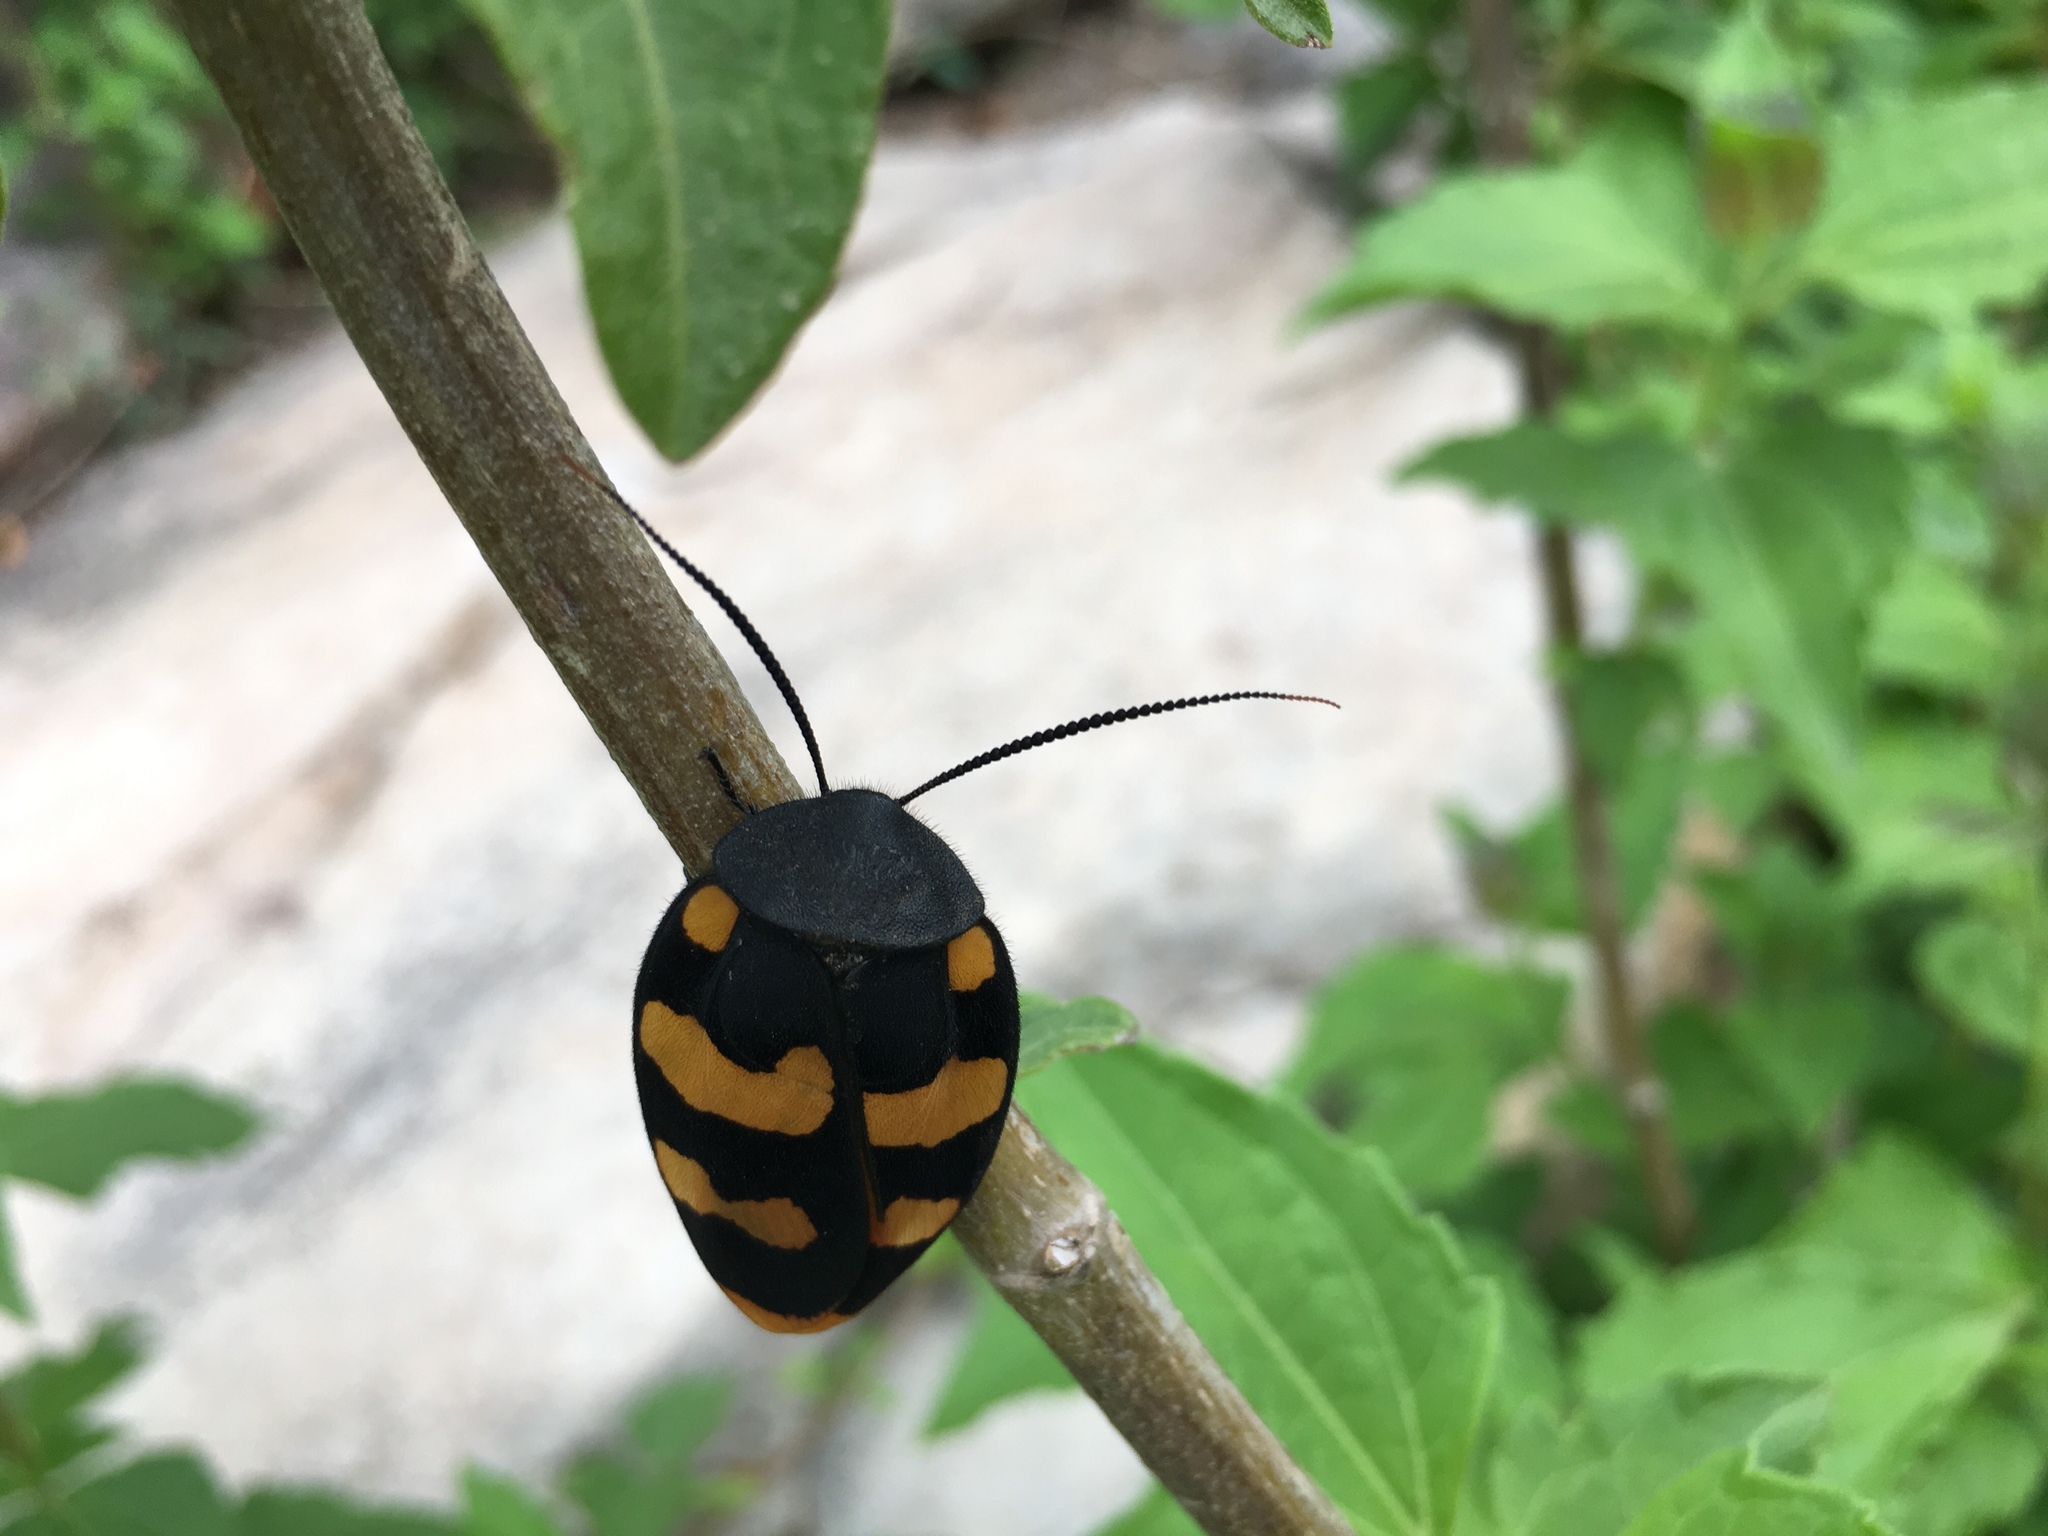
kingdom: Animalia
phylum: Arthropoda
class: Insecta
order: Blattodea
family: Corydiidae
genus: Therea
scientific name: Therea nuptialis
